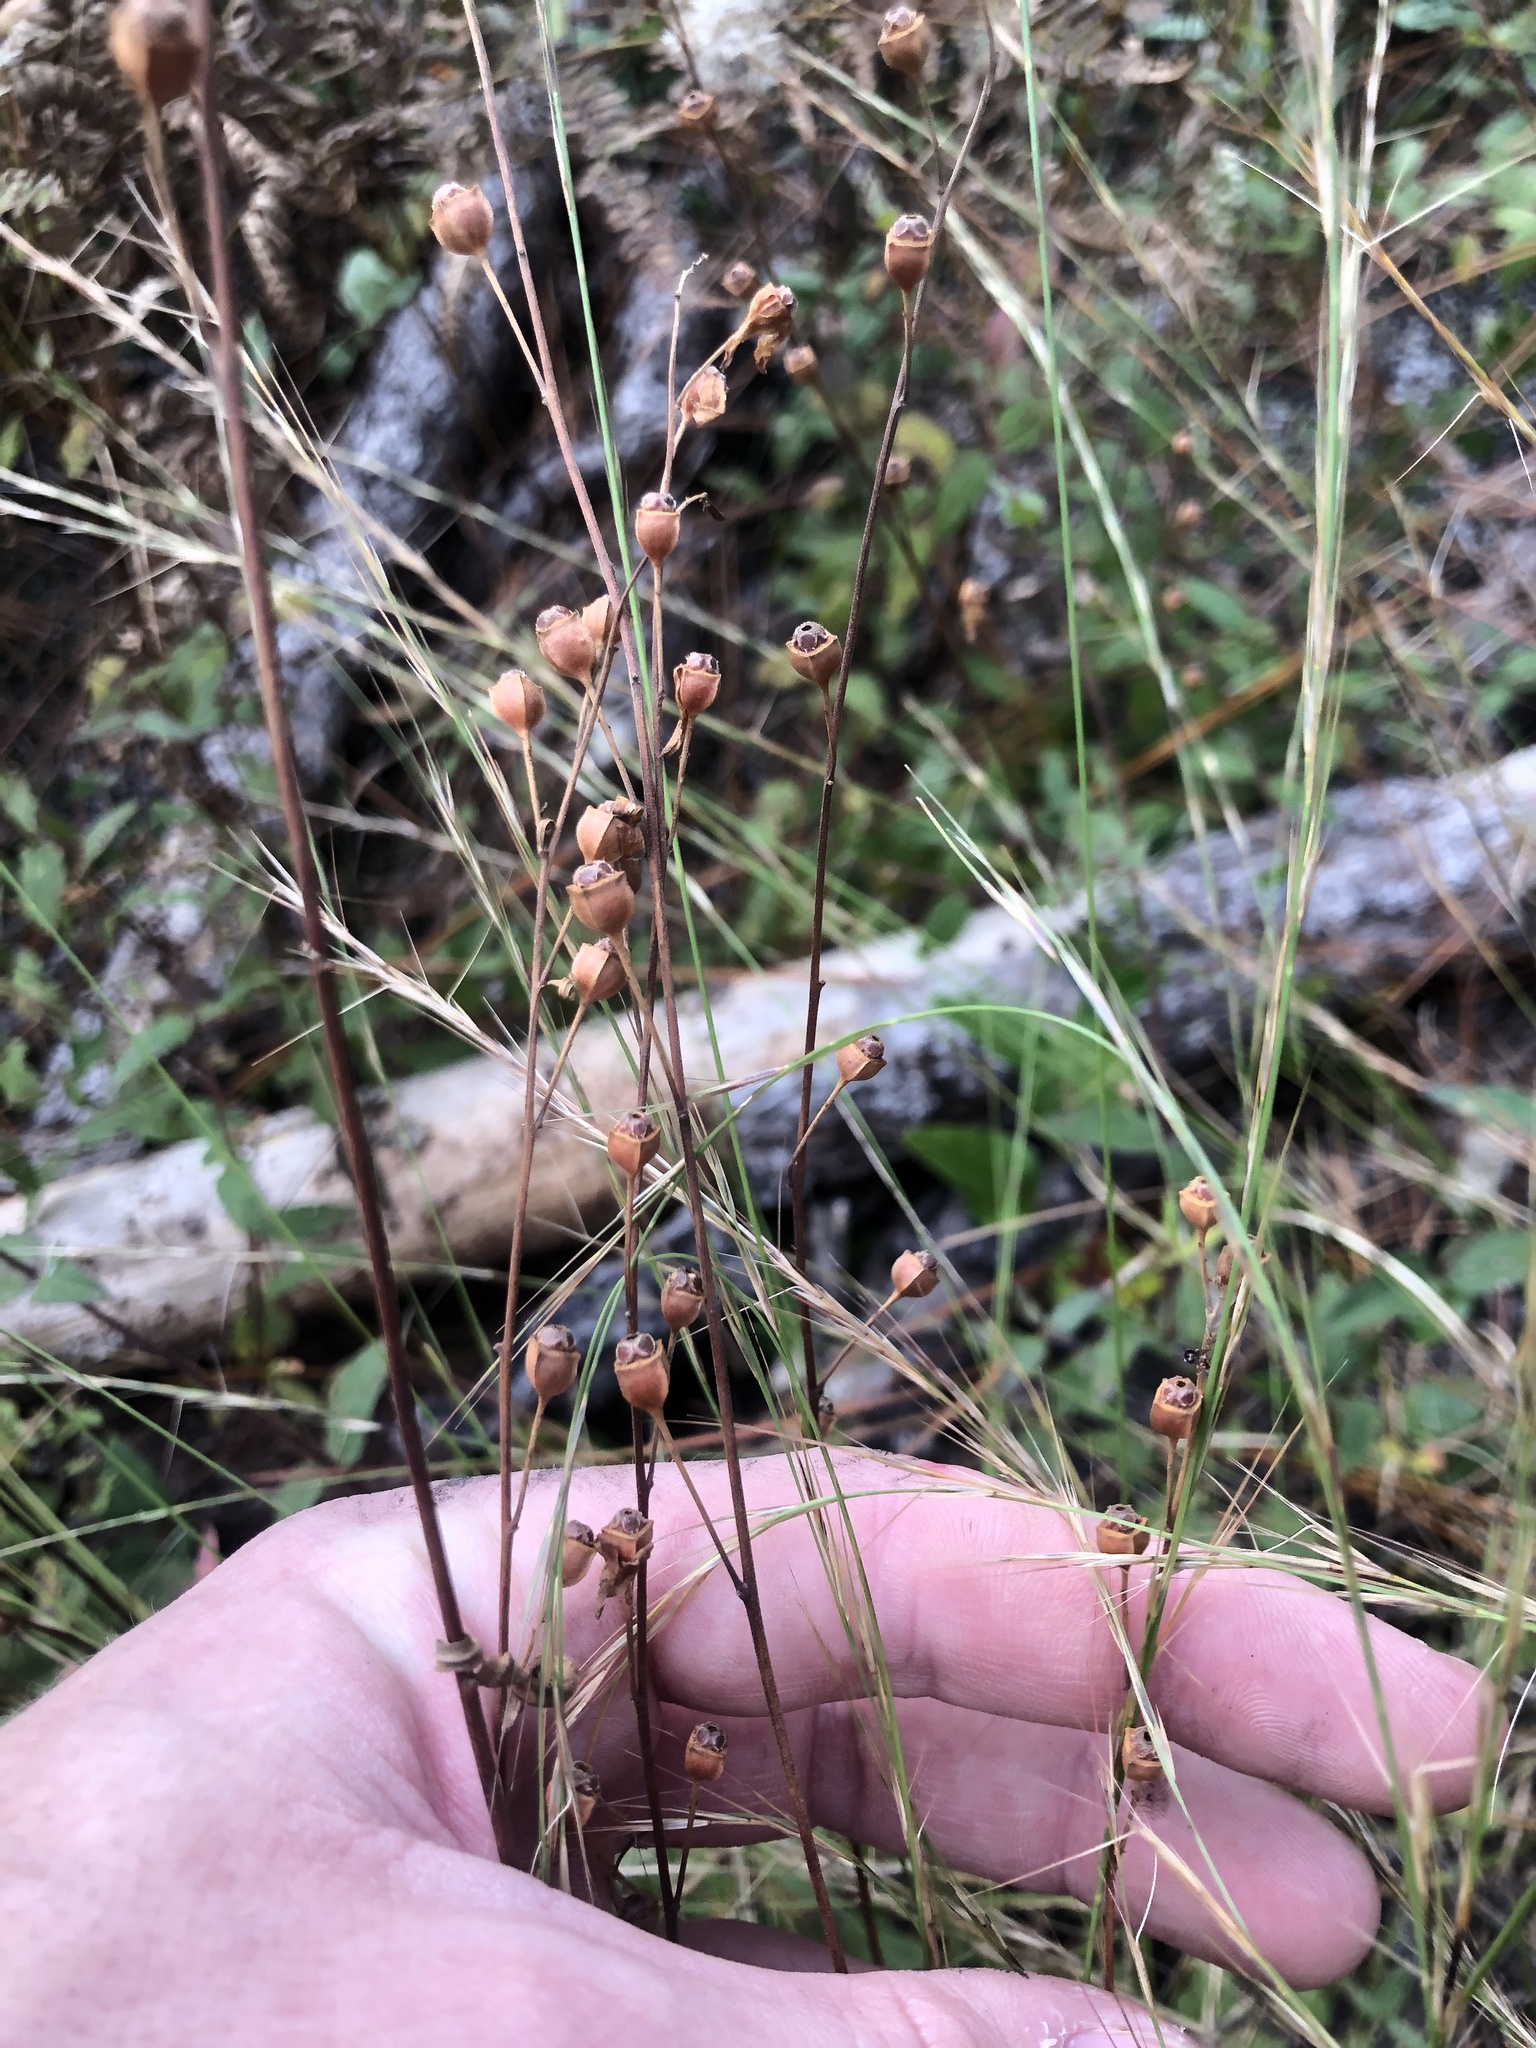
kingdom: Plantae
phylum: Tracheophyta
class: Magnoliopsida
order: Myrtales
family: Onagraceae
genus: Ludwigia
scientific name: Ludwigia virgata
